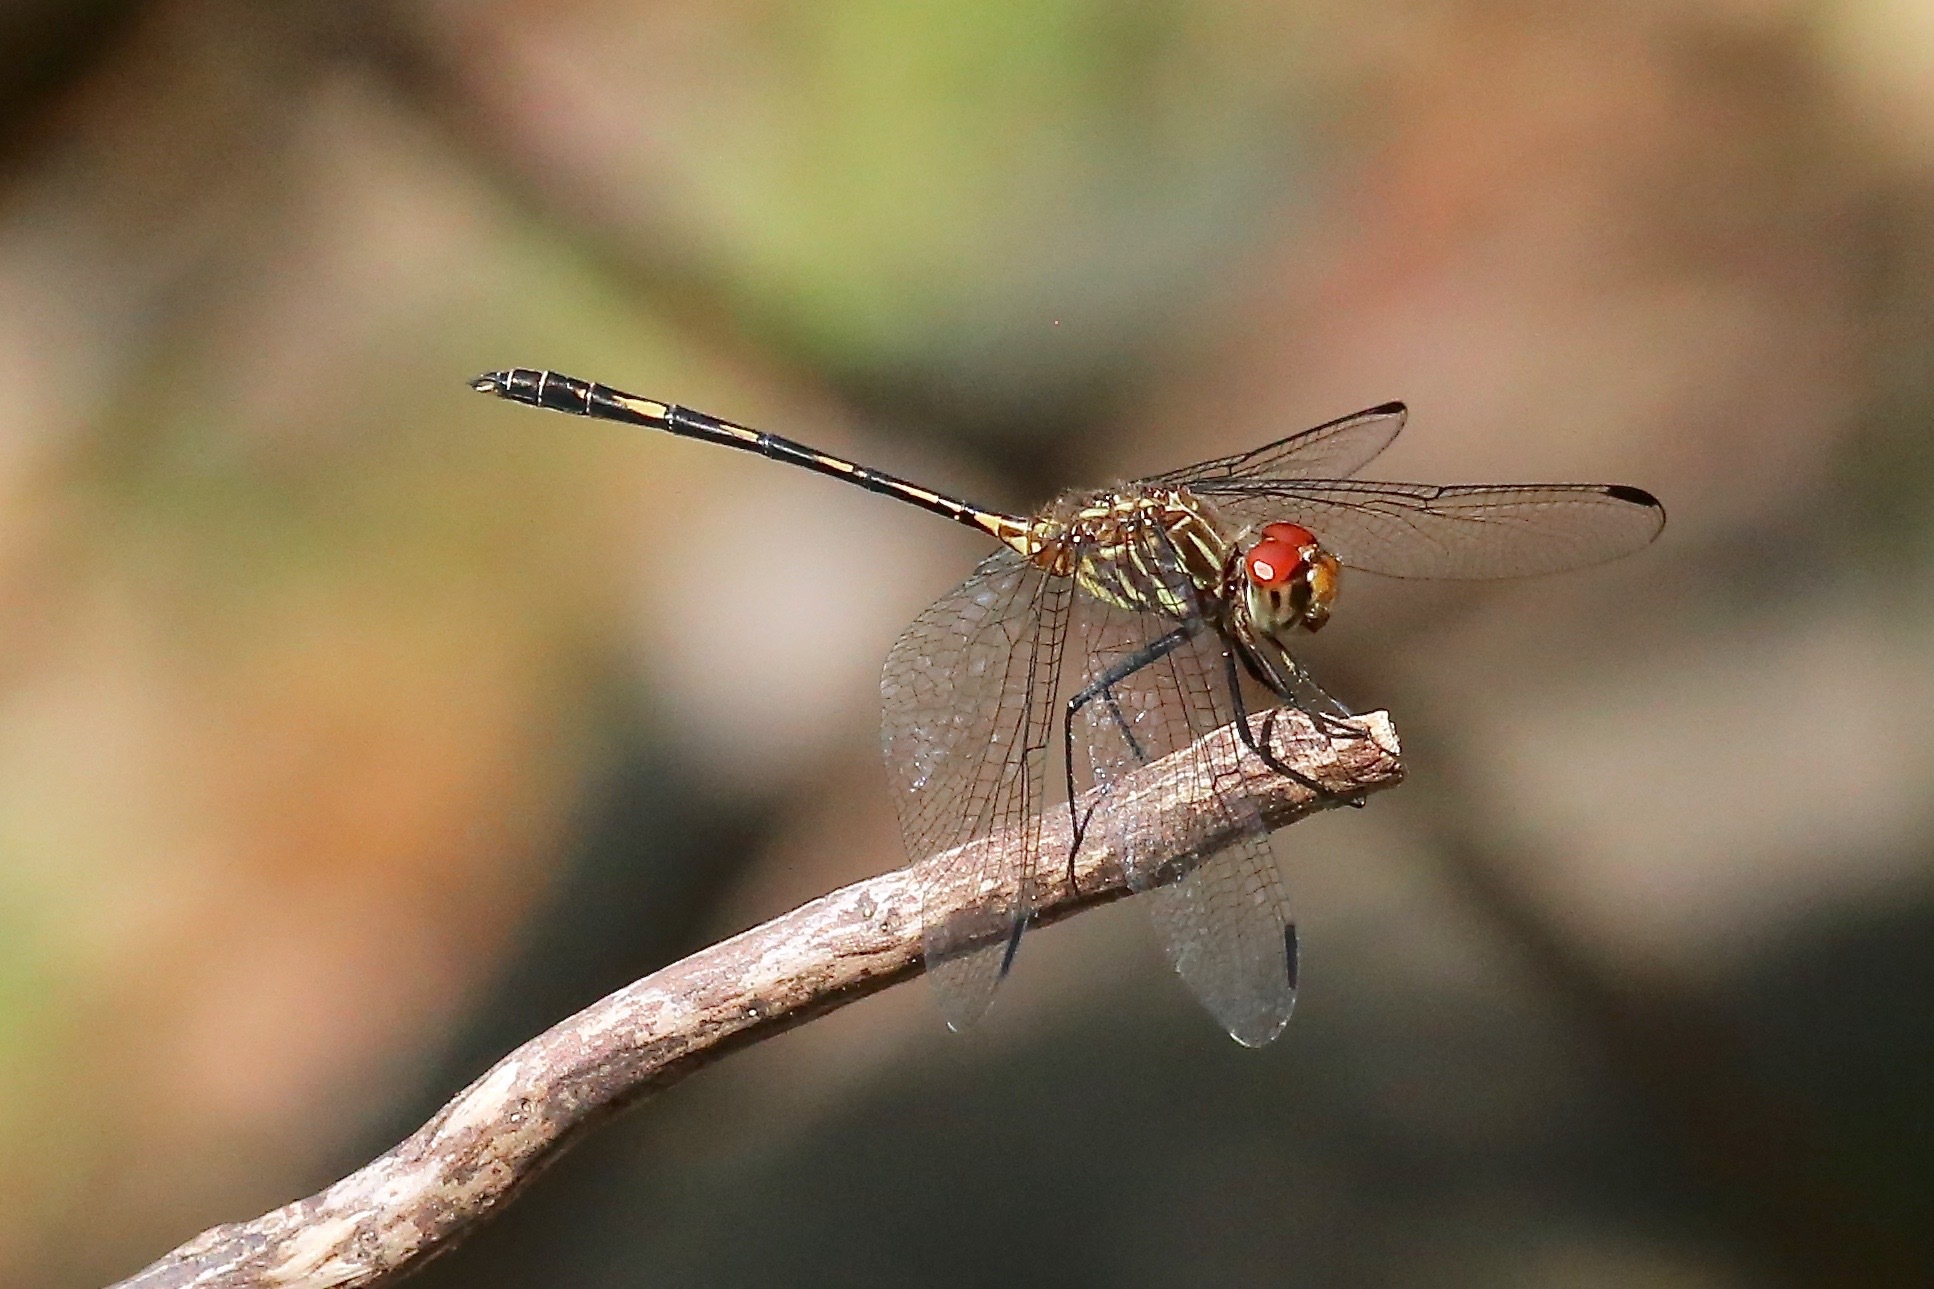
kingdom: Animalia
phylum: Arthropoda
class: Insecta
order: Odonata
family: Libellulidae
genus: Dythemis
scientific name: Dythemis sterilis
